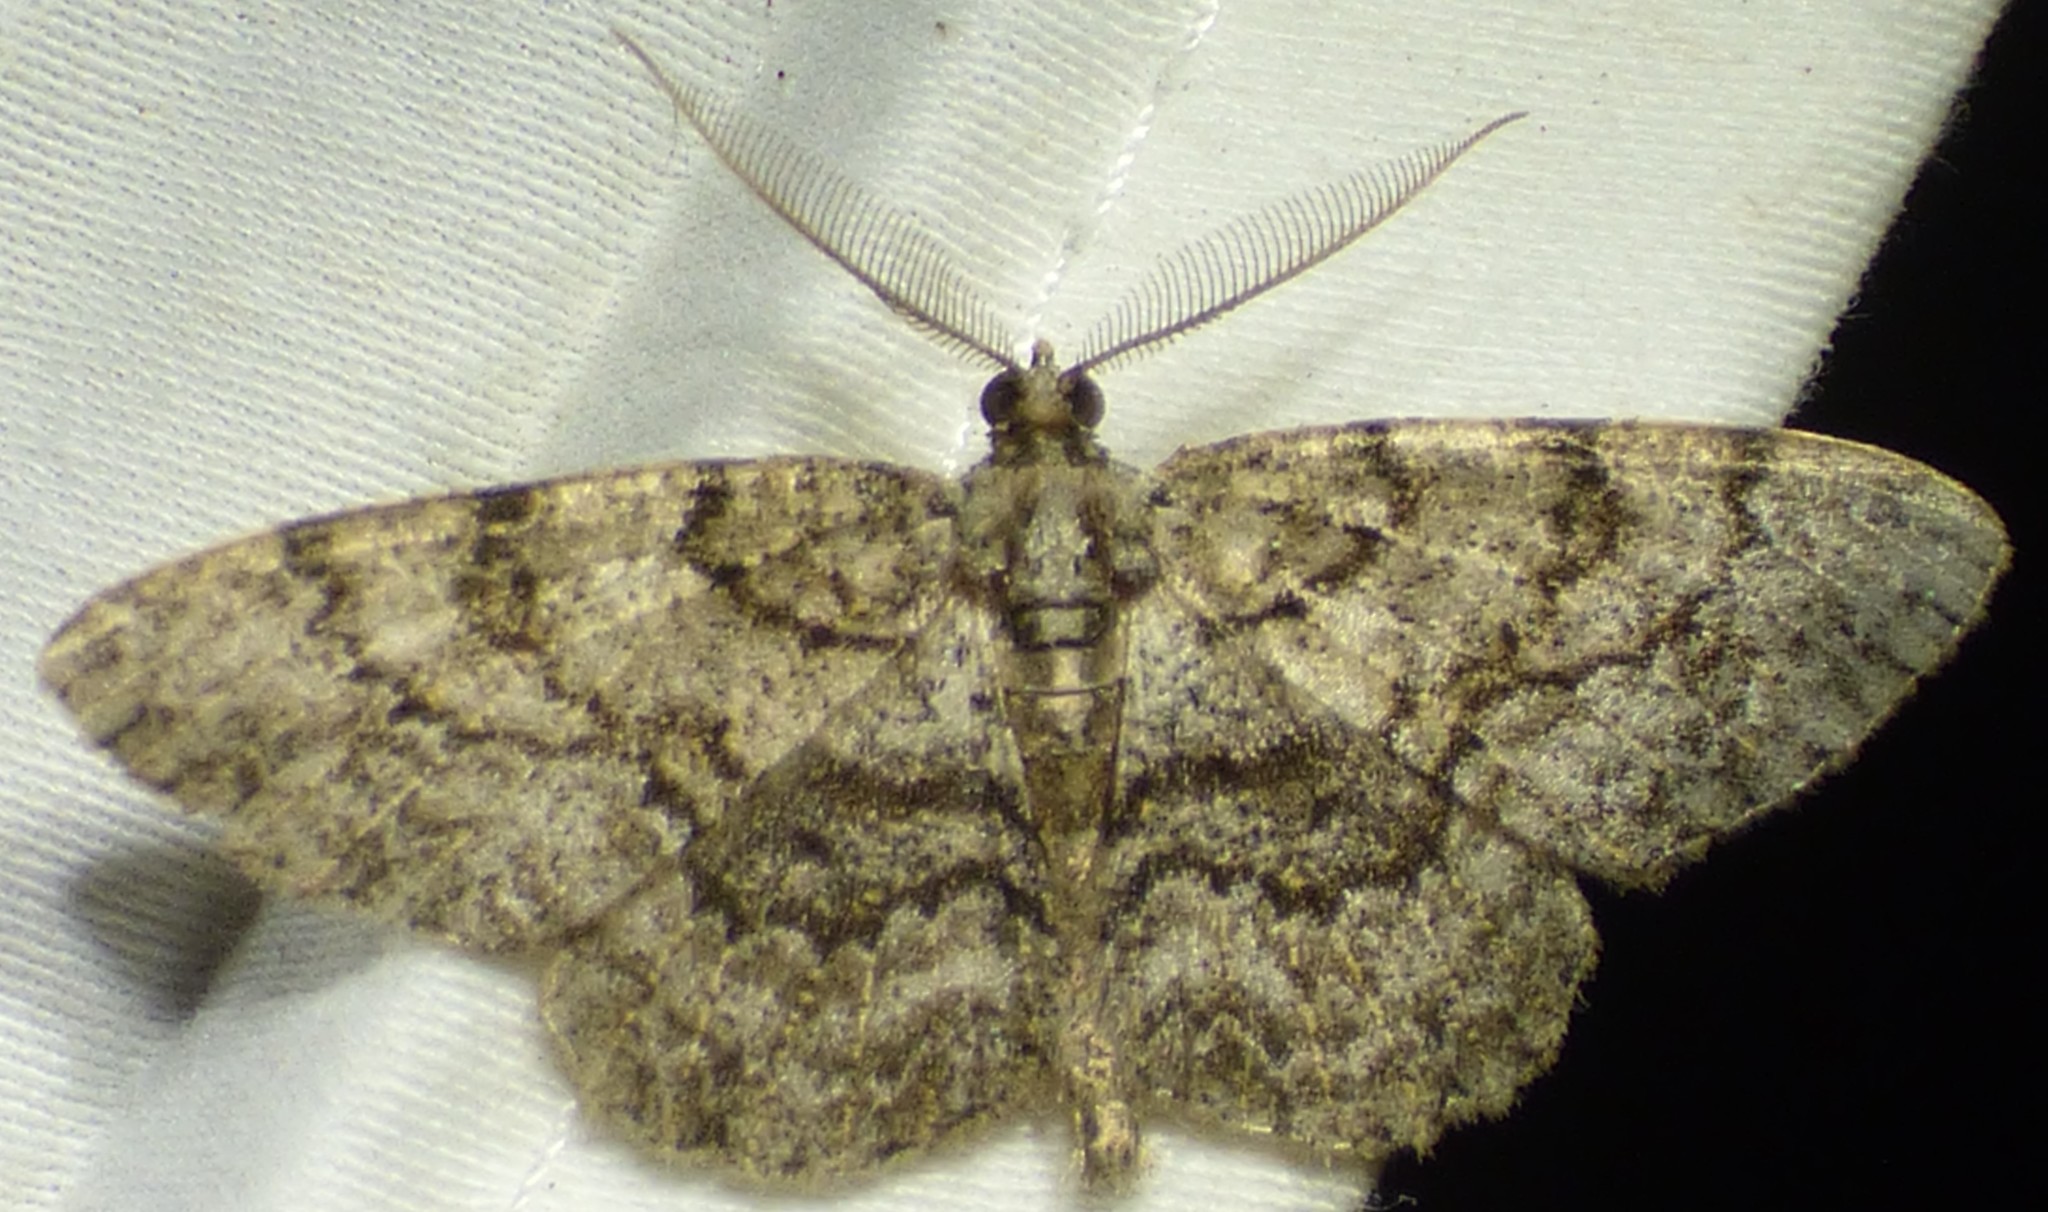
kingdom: Animalia
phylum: Arthropoda
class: Insecta
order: Lepidoptera
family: Geometridae
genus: Protoboarmia
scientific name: Protoboarmia porcelaria
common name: Porcelain gray
